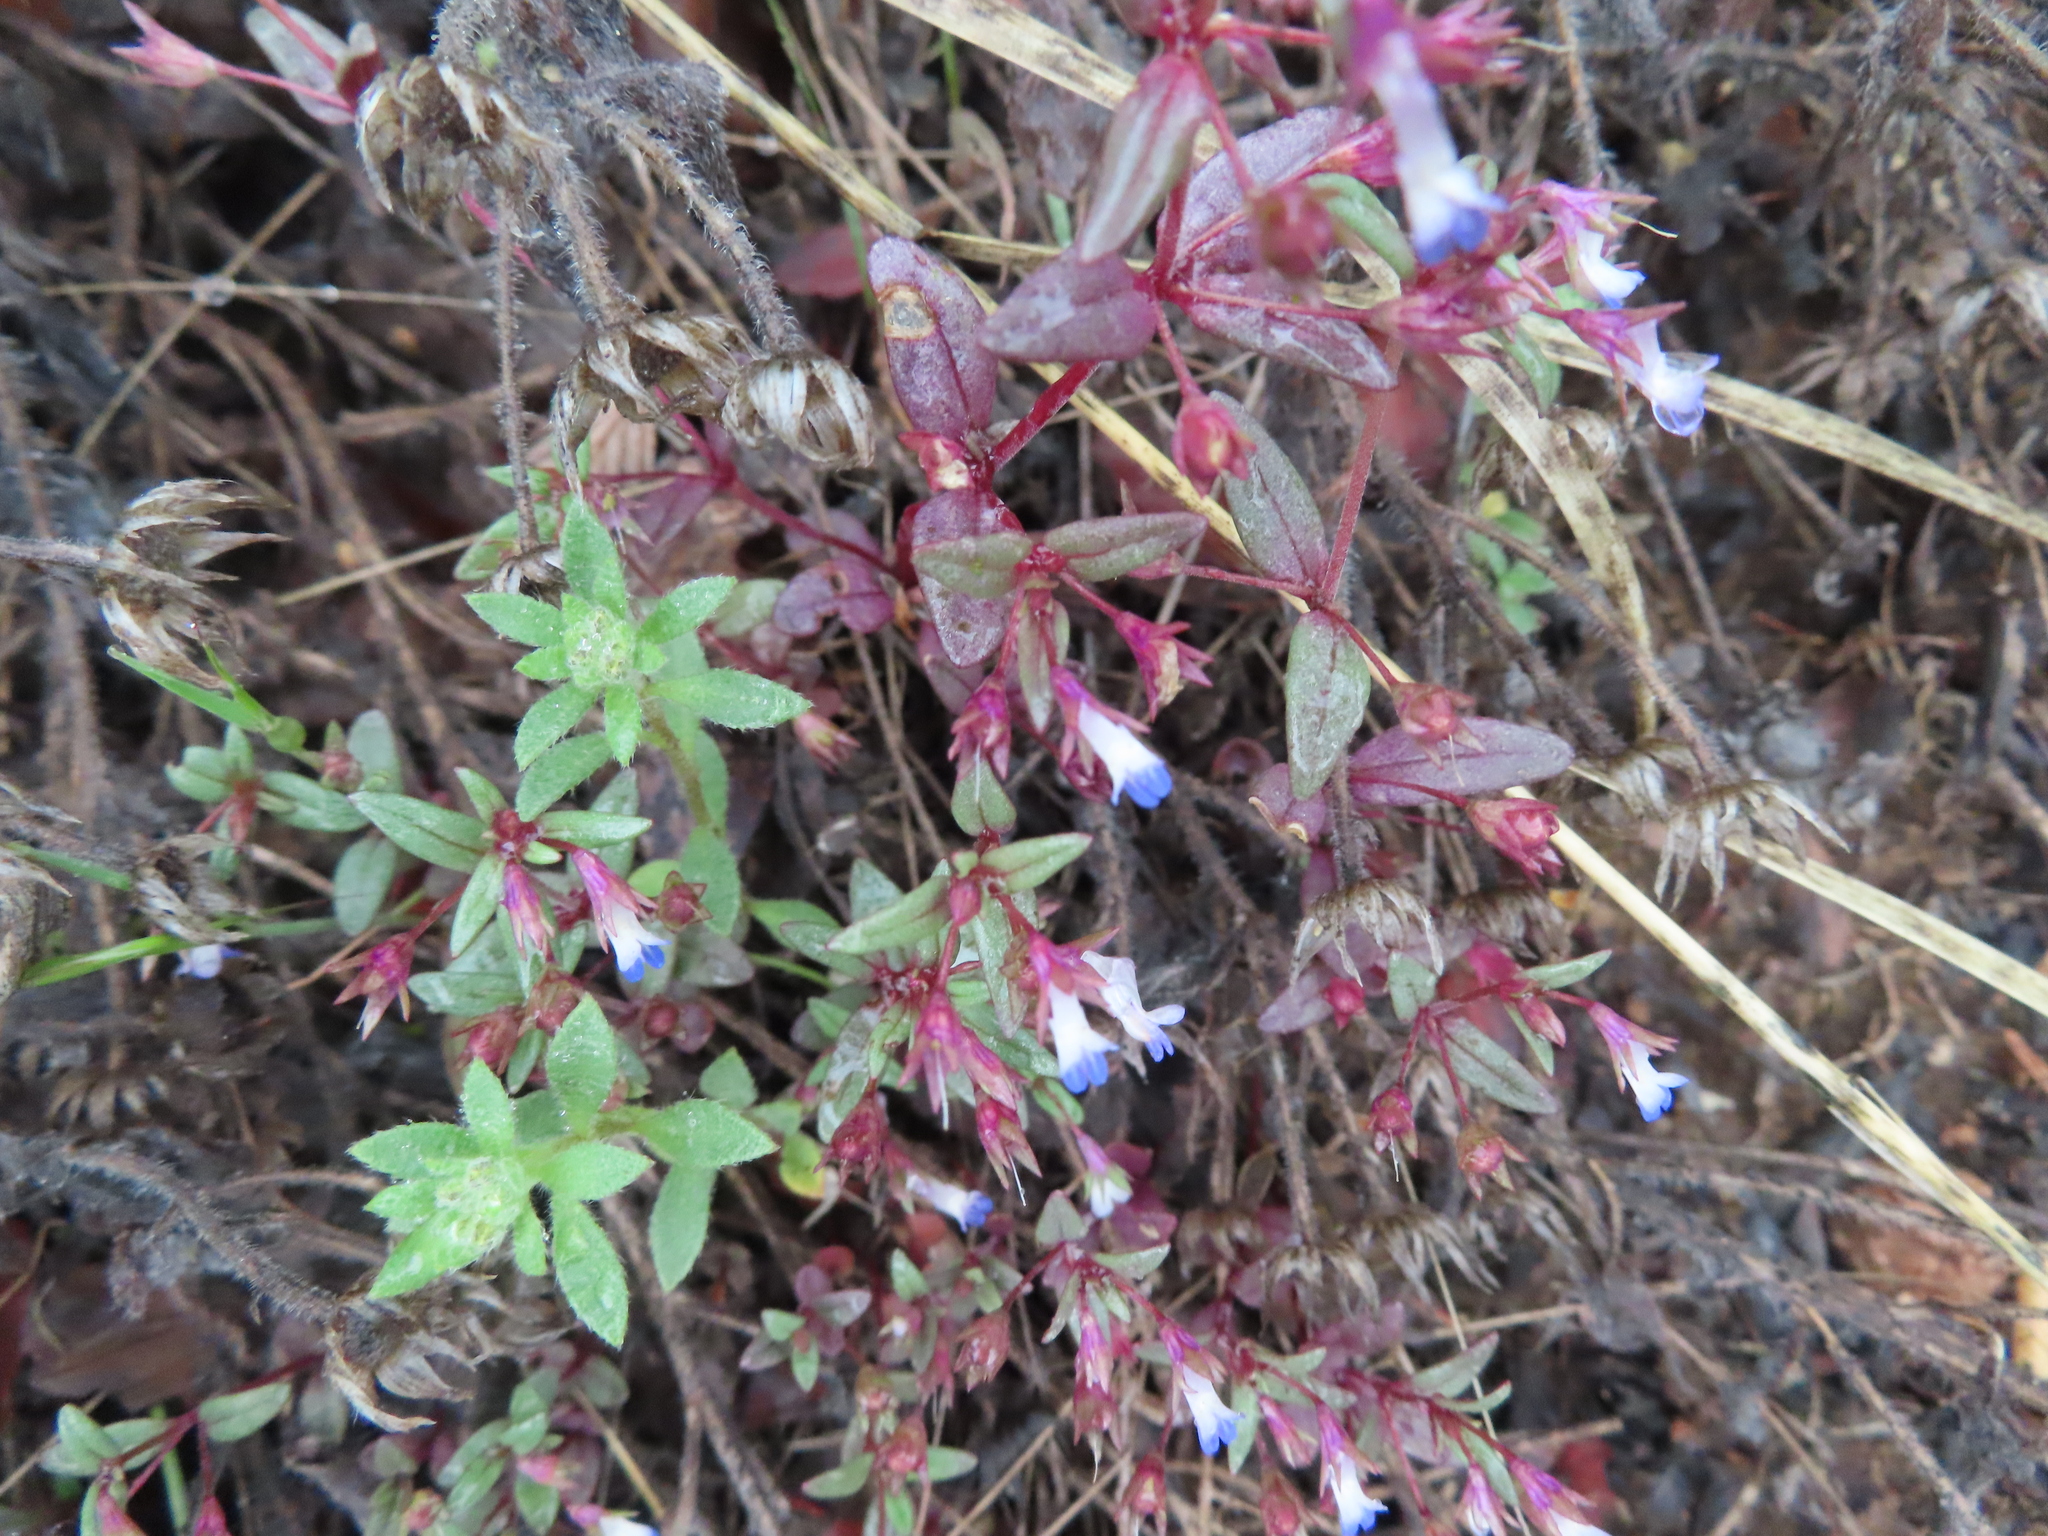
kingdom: Plantae
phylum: Tracheophyta
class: Magnoliopsida
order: Lamiales
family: Plantaginaceae
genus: Collinsia
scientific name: Collinsia parviflora
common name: Blue-lips
